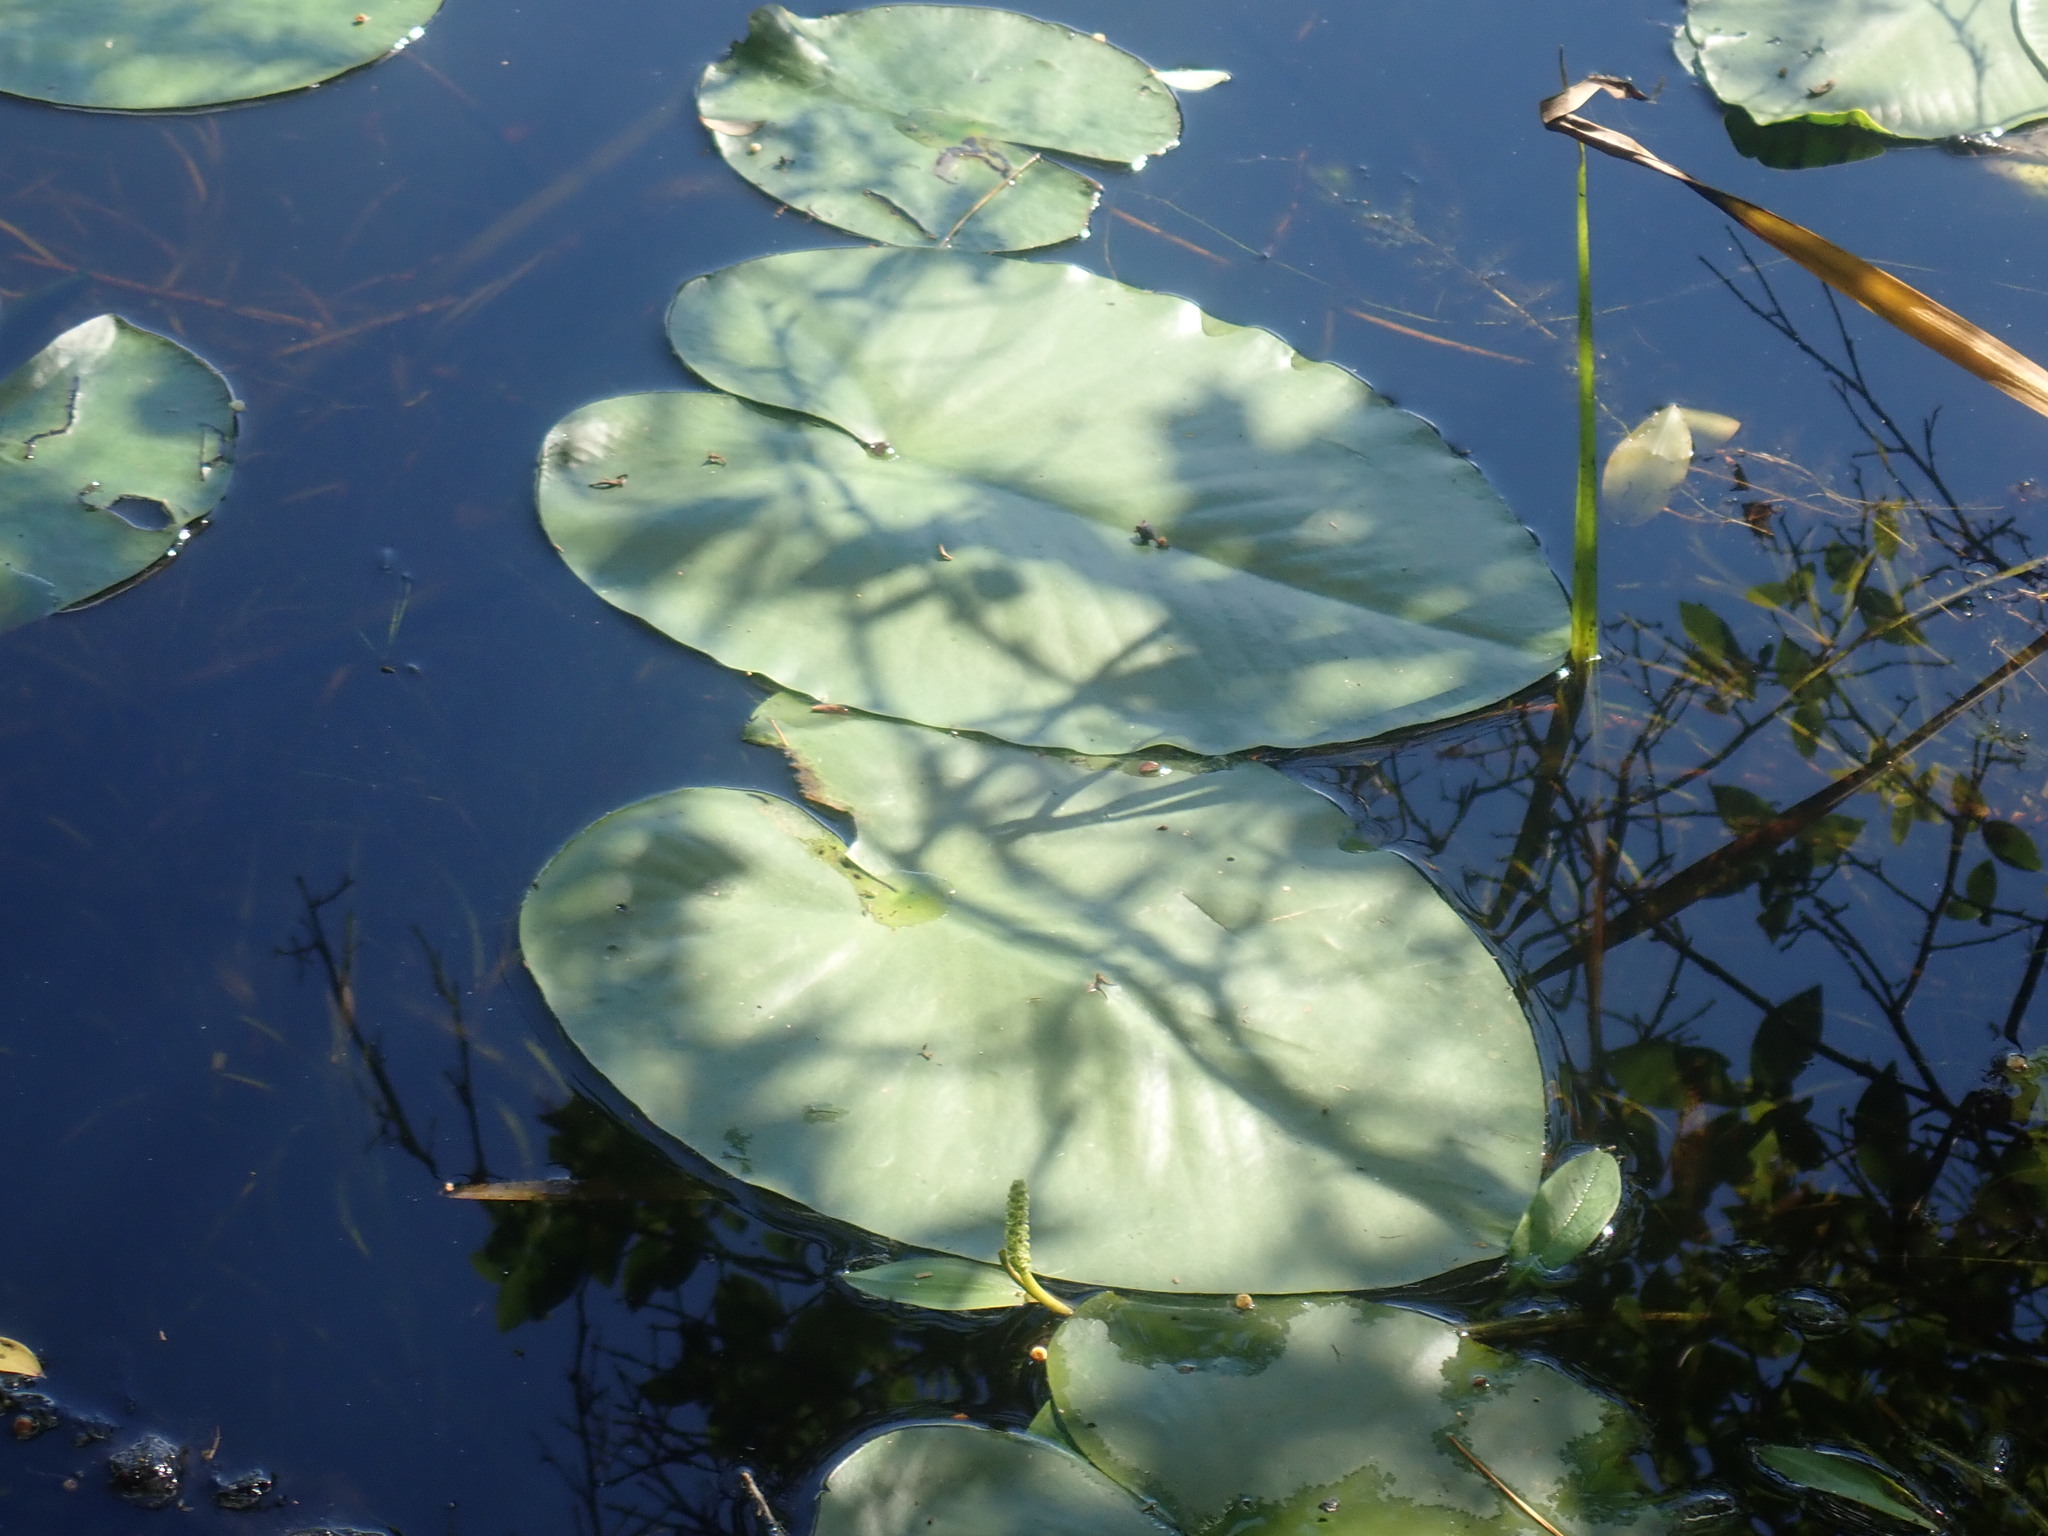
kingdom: Plantae
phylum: Tracheophyta
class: Magnoliopsida
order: Nymphaeales
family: Nymphaeaceae
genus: Nuphar
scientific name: Nuphar variegata
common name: Beaver-root
